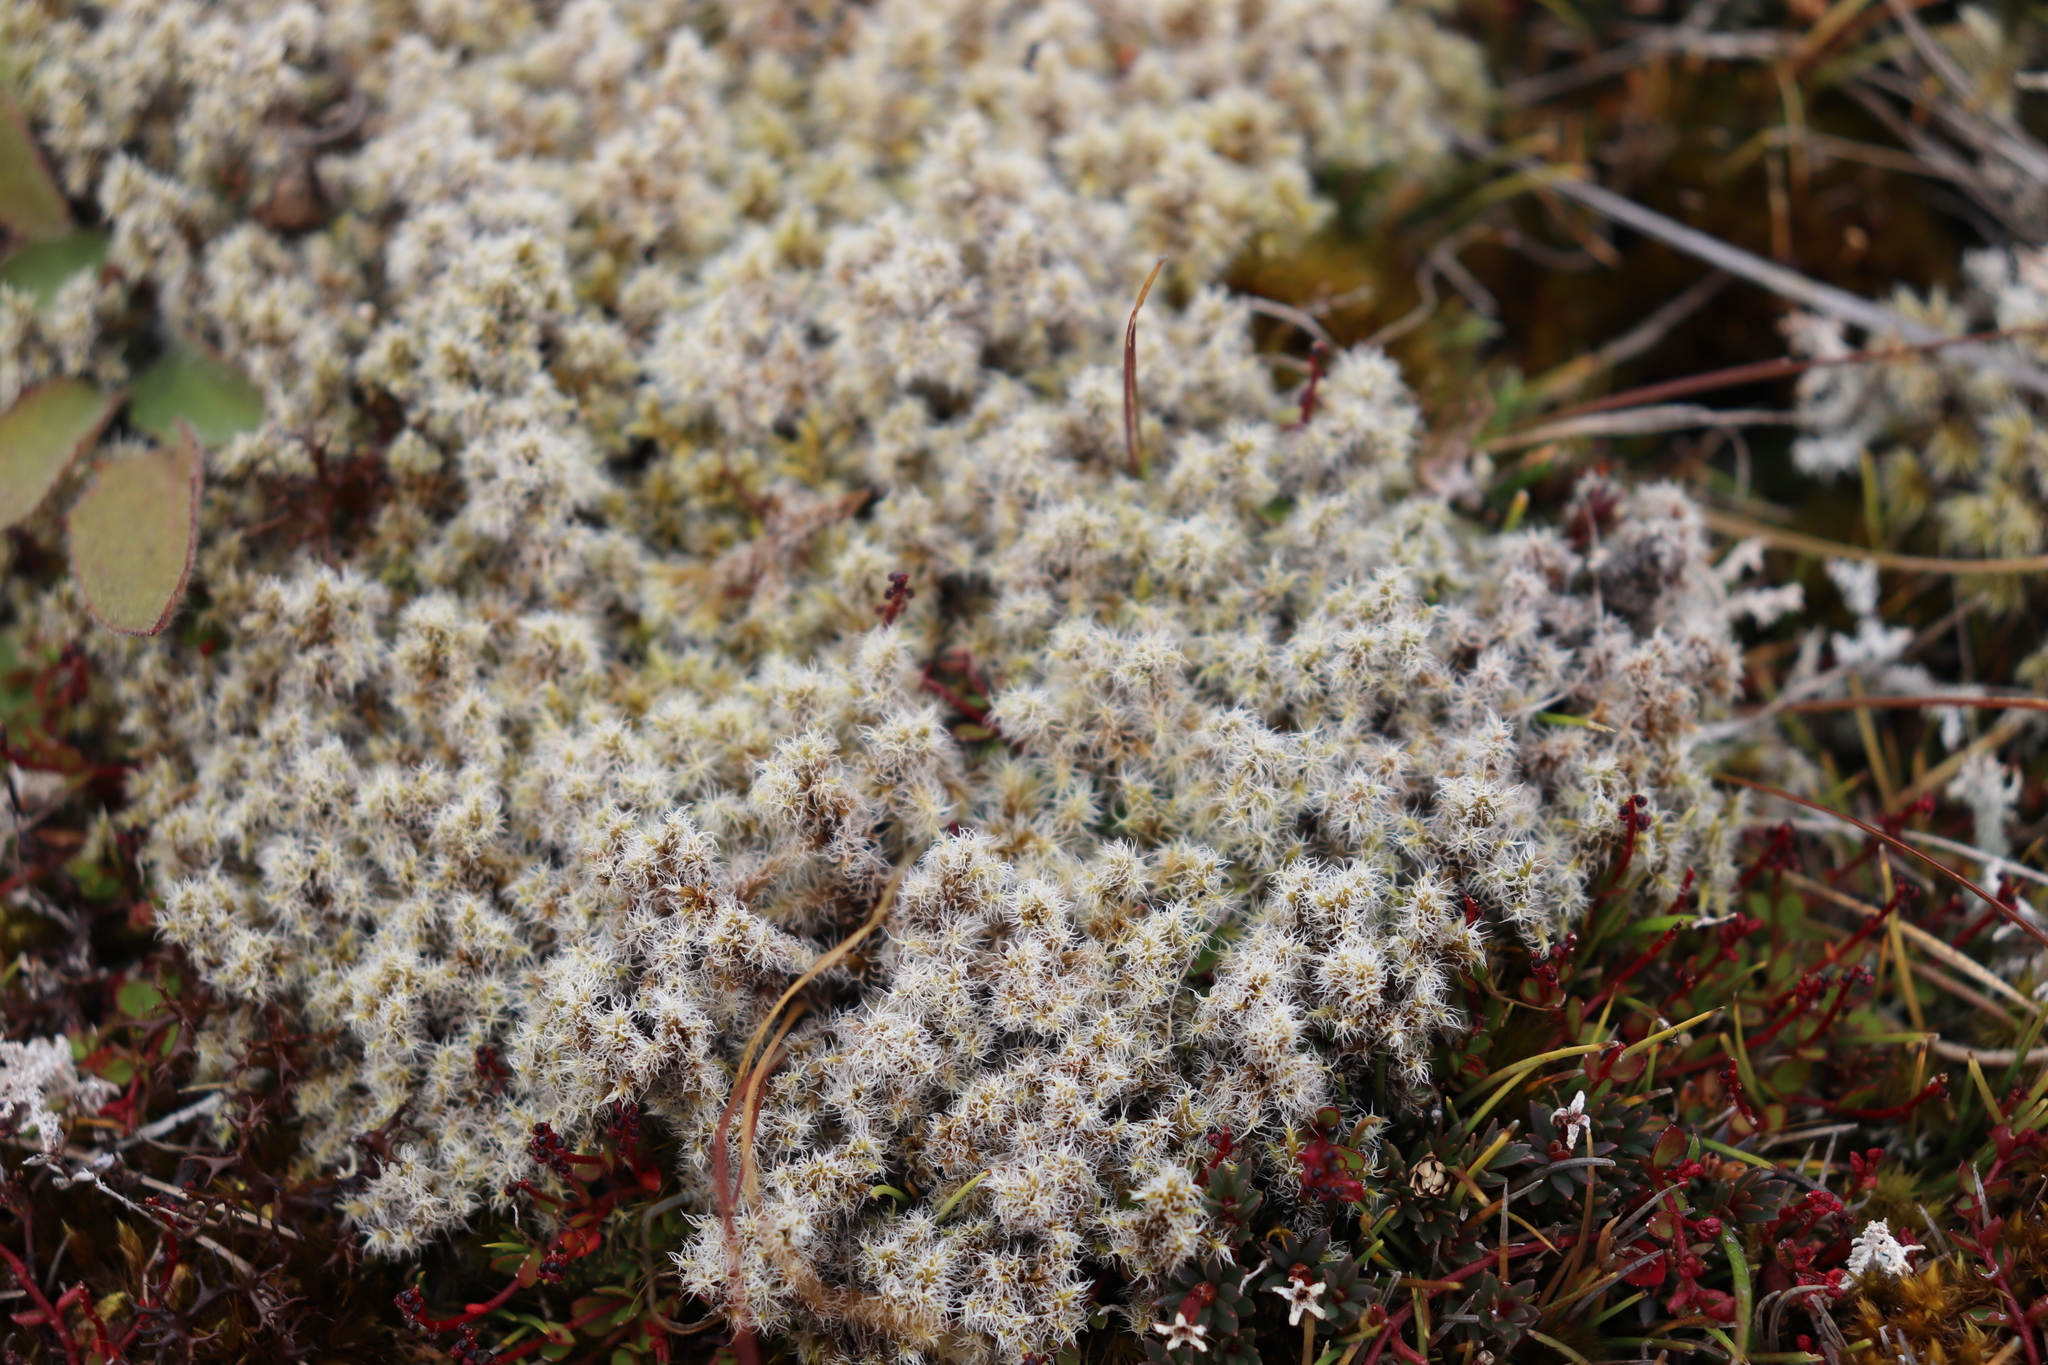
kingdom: Plantae
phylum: Bryophyta
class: Bryopsida
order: Grimmiales
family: Grimmiaceae
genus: Racomitrium
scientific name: Racomitrium lanuginosum
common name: Hoary rock moss
